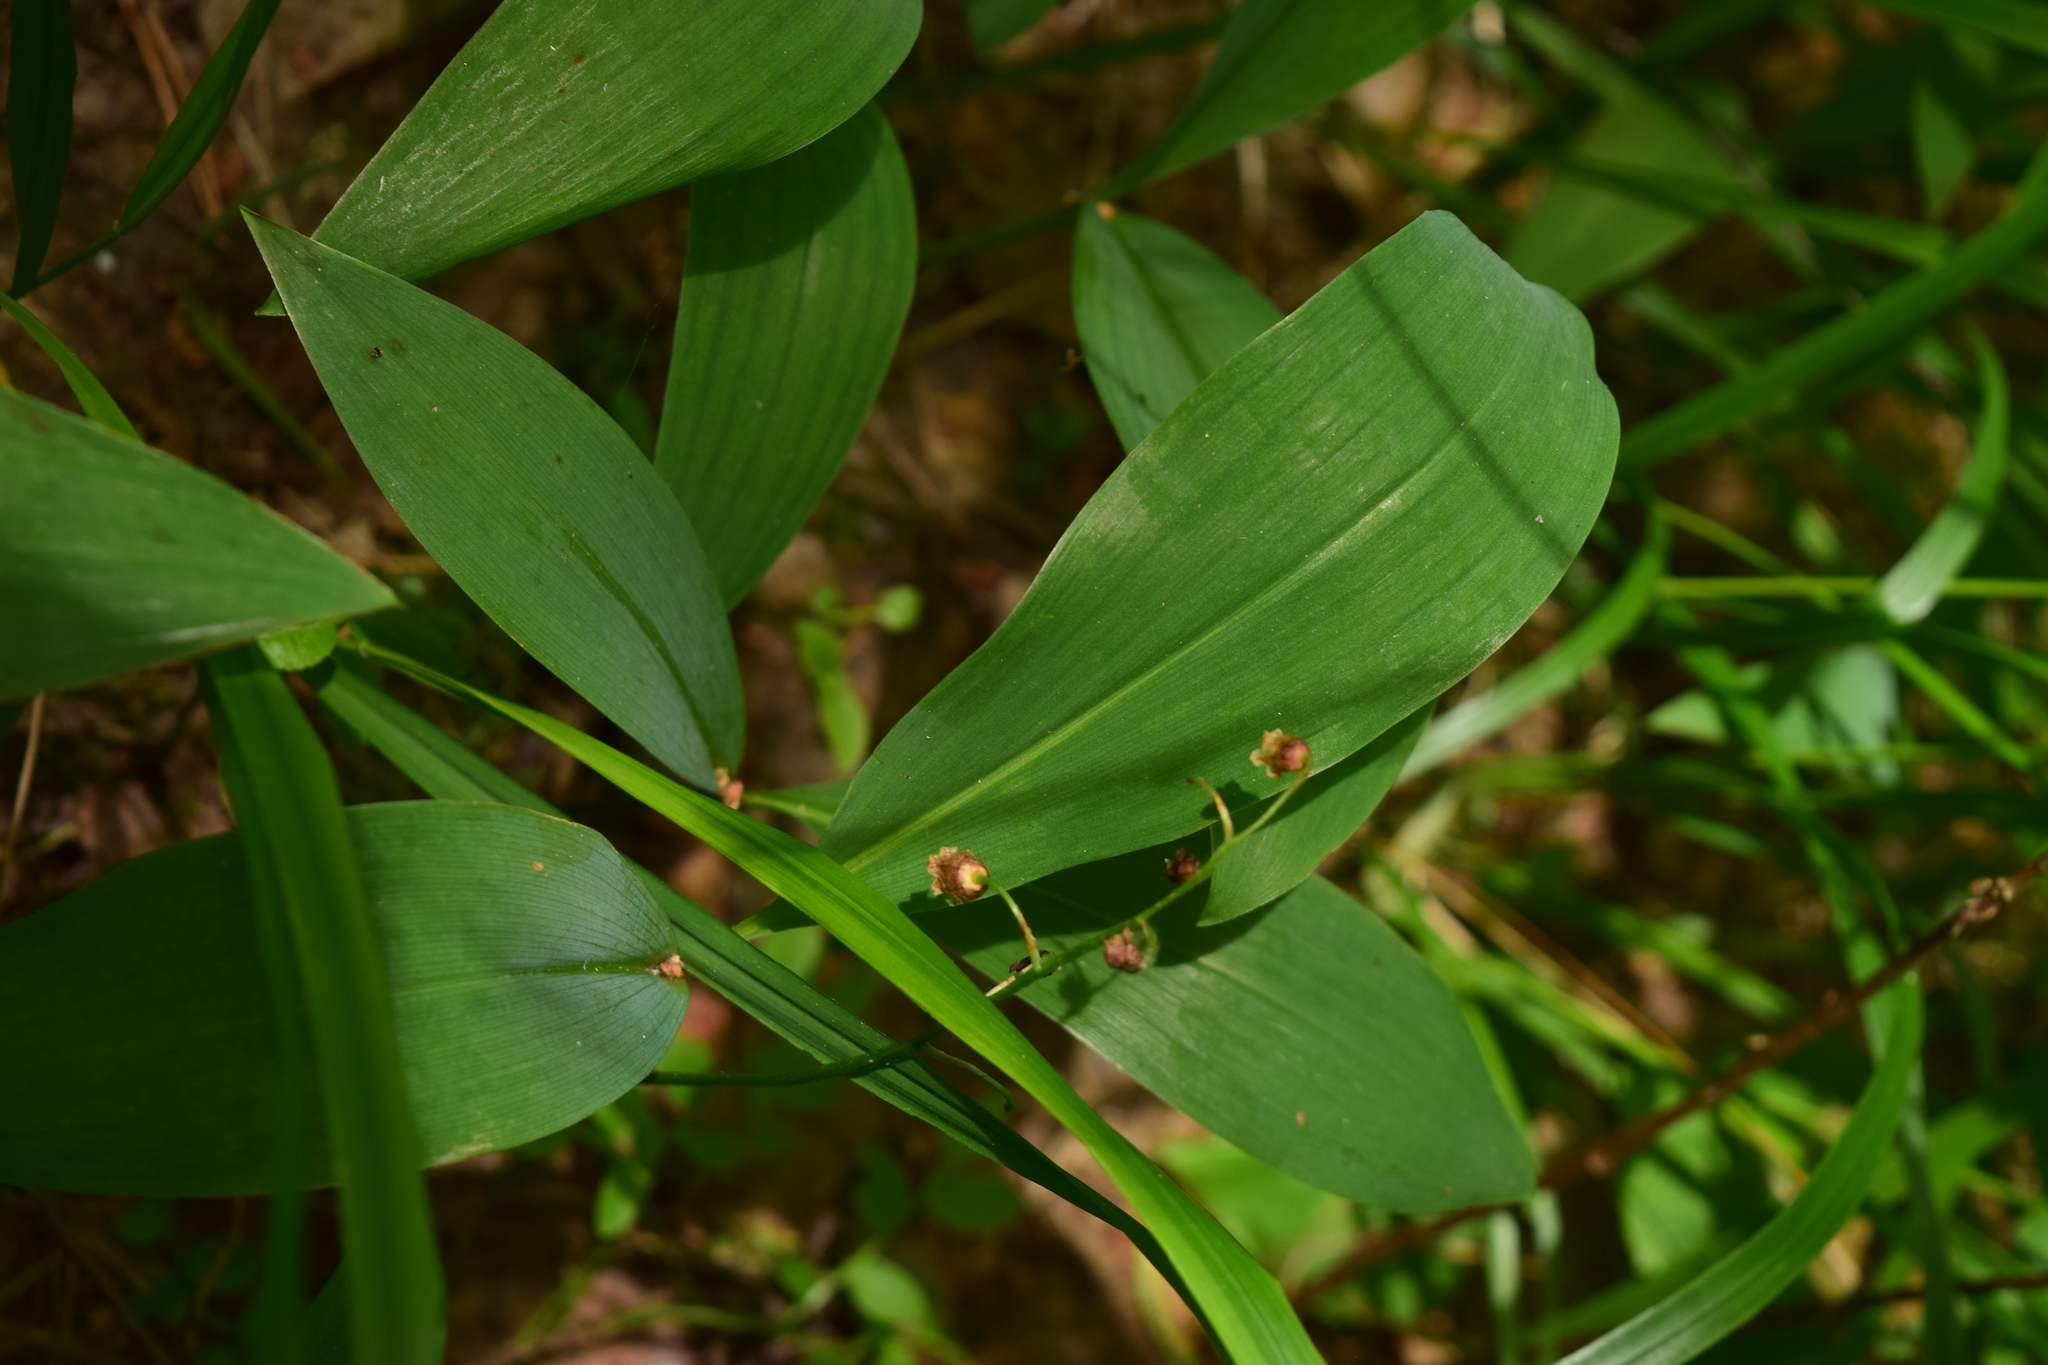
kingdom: Plantae
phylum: Tracheophyta
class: Liliopsida
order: Asparagales
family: Asparagaceae
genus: Convallaria
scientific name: Convallaria majalis
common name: Lily-of-the-valley
